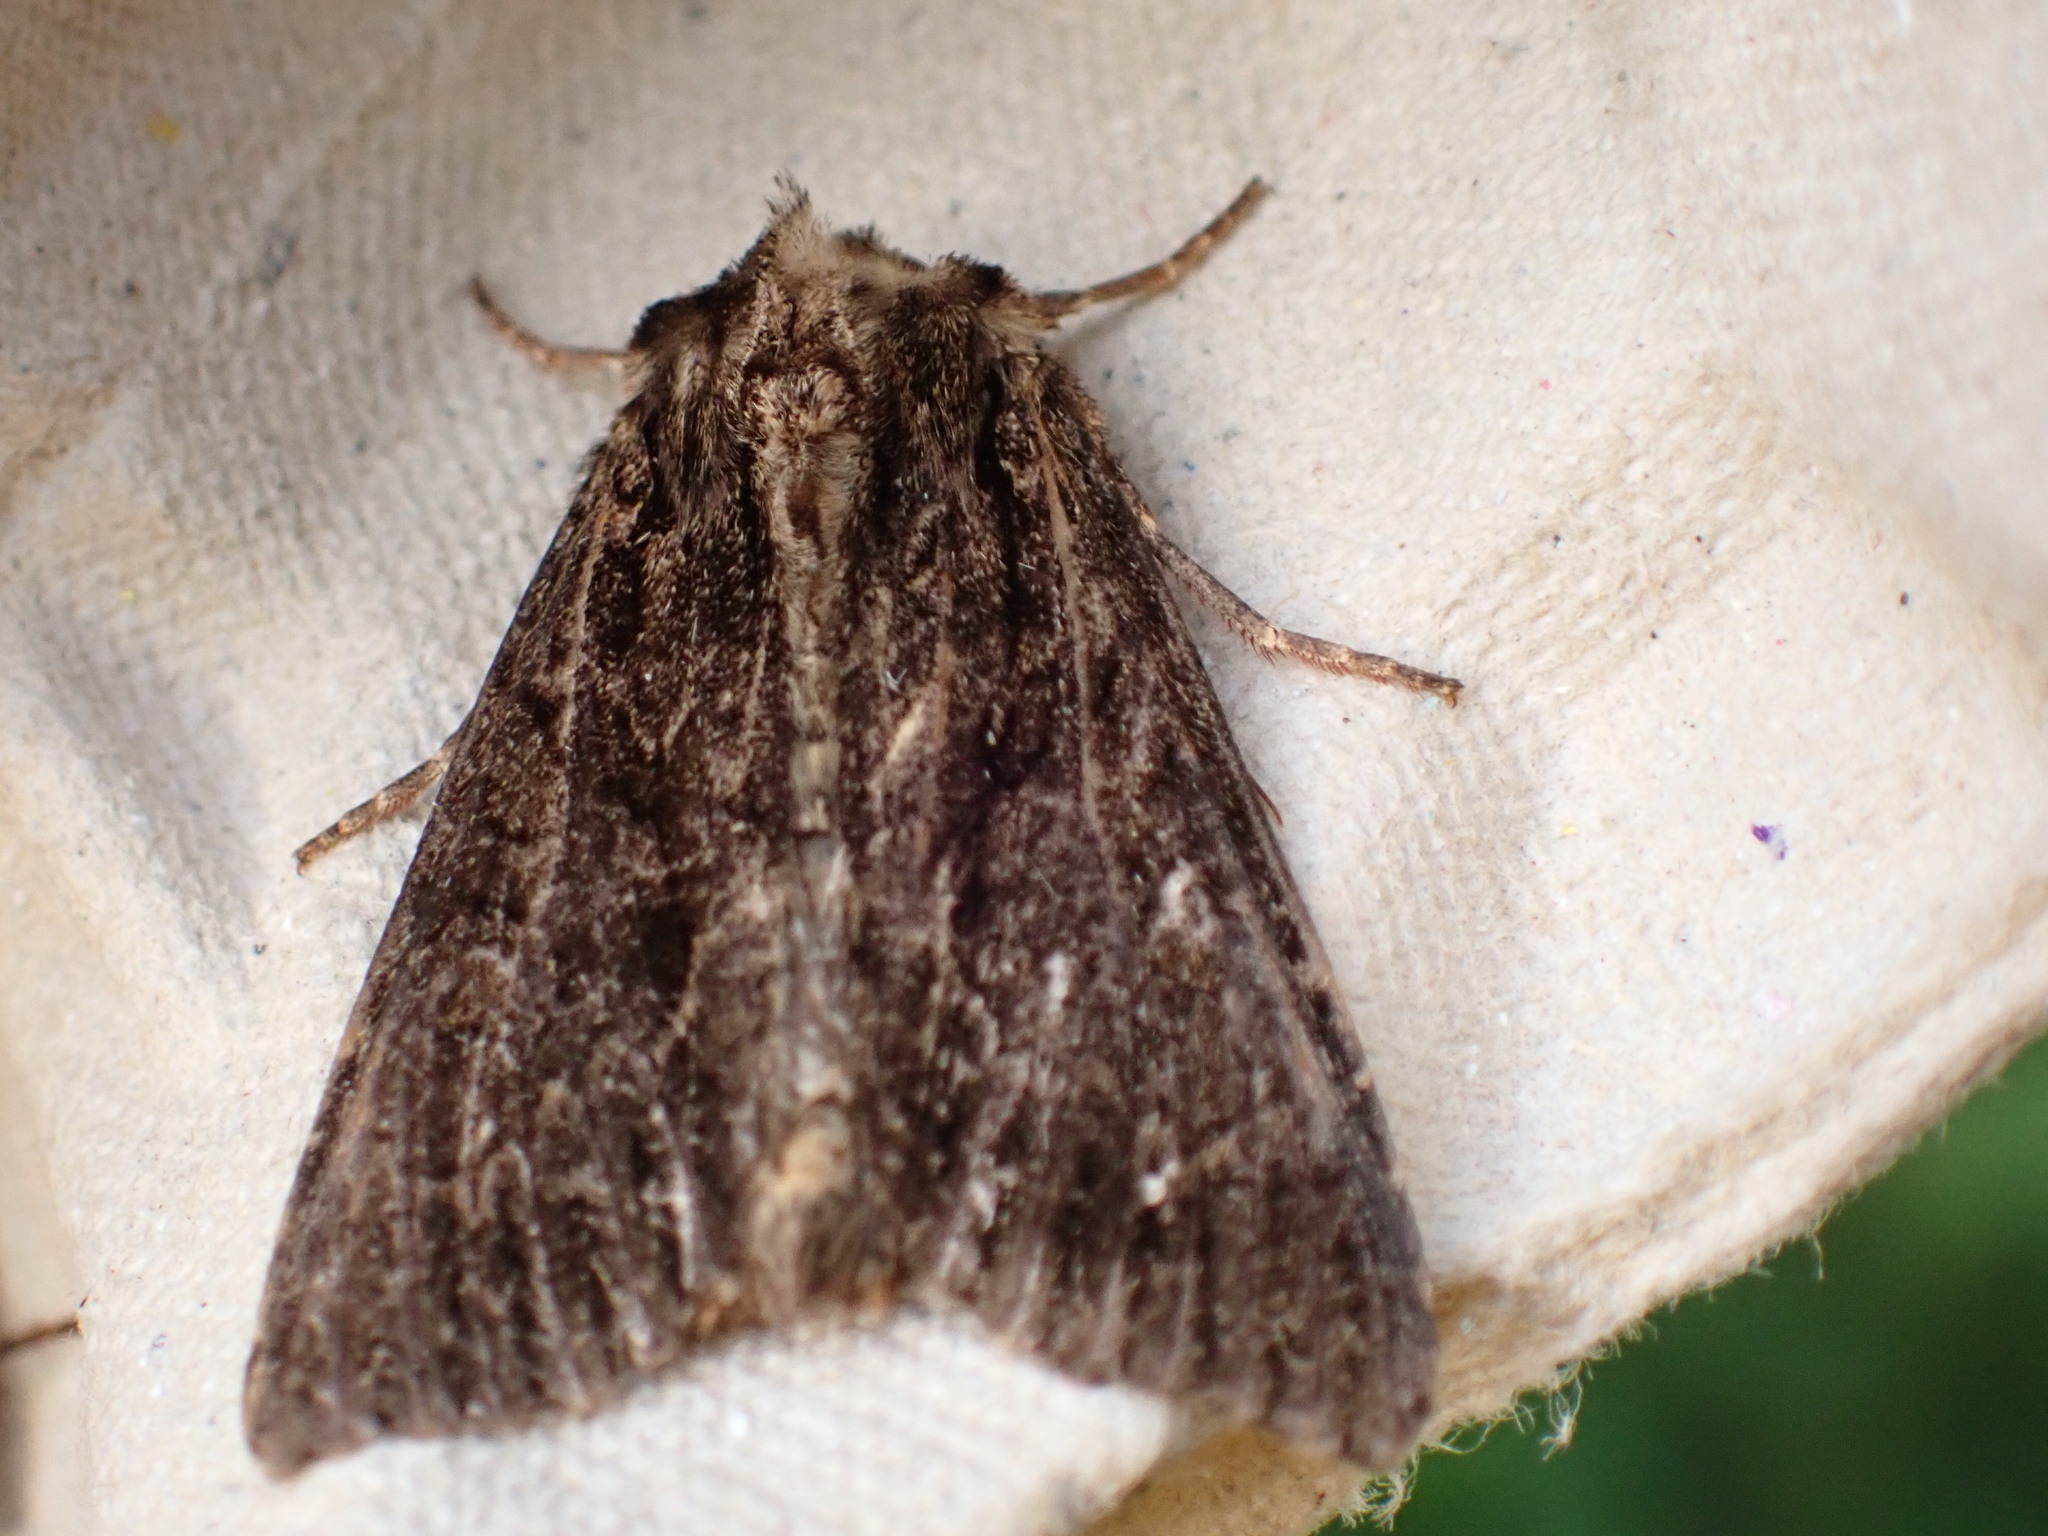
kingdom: Animalia
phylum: Arthropoda
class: Insecta
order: Lepidoptera
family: Noctuidae
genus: Apamea
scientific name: Apamea monoglypha
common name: Dark arches
